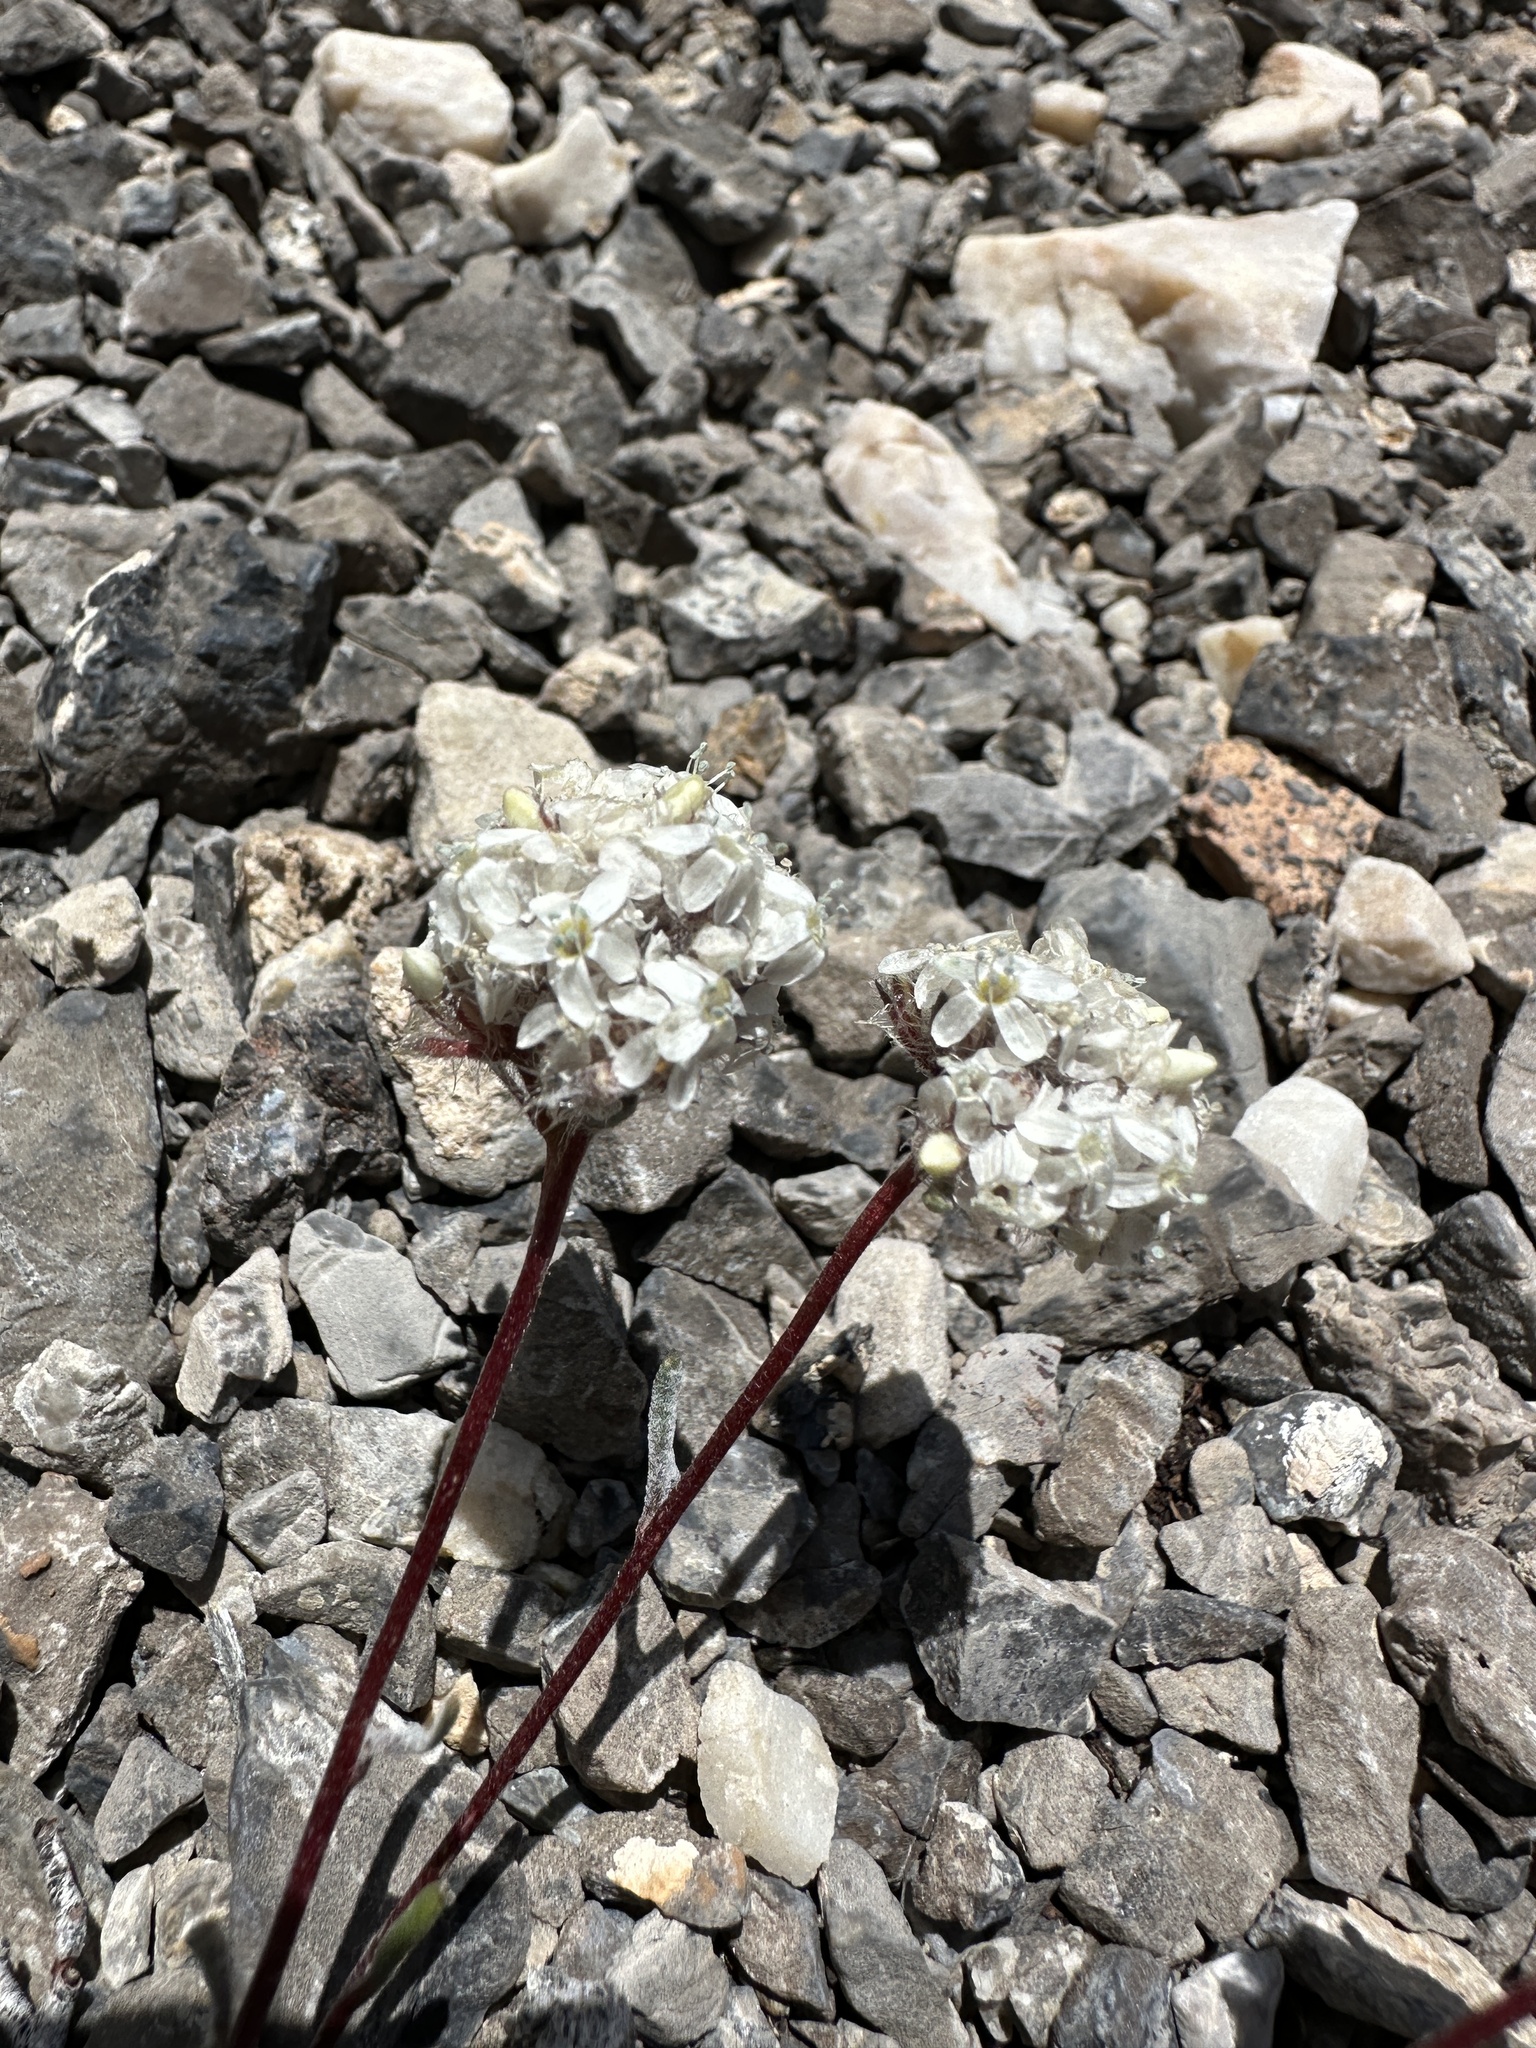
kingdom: Plantae
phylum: Tracheophyta
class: Magnoliopsida
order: Ericales
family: Polemoniaceae
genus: Ipomopsis
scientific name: Ipomopsis congesta
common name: Ball-head gilia
